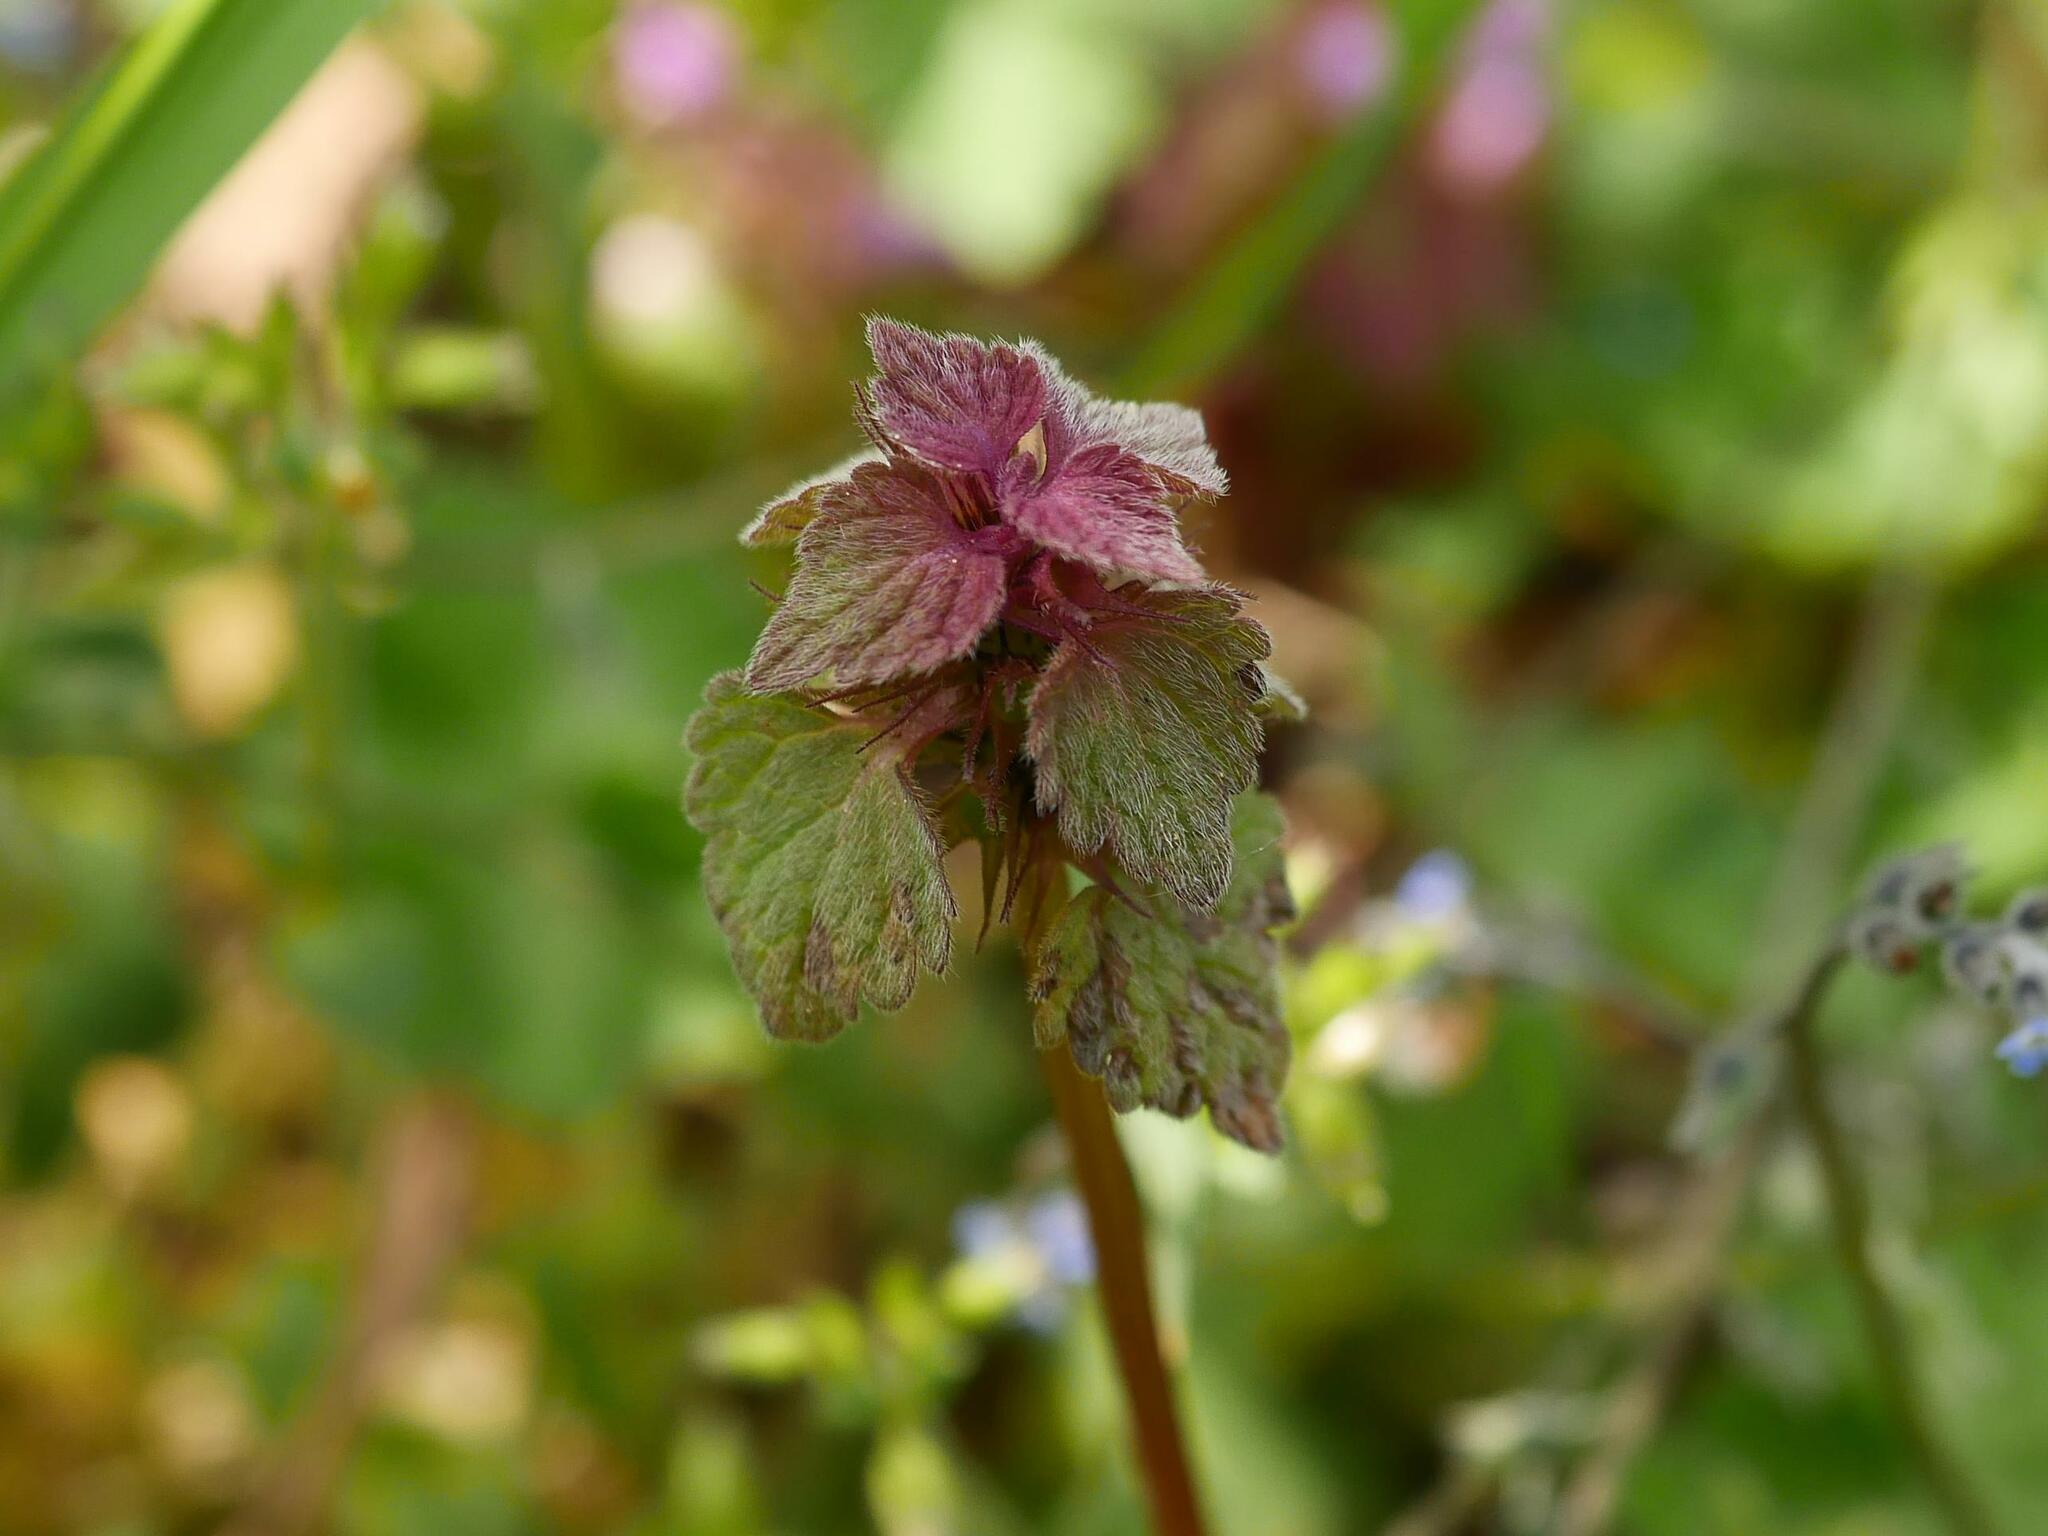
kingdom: Plantae
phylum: Tracheophyta
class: Magnoliopsida
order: Lamiales
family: Lamiaceae
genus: Lamium
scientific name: Lamium purpureum
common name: Red dead-nettle
